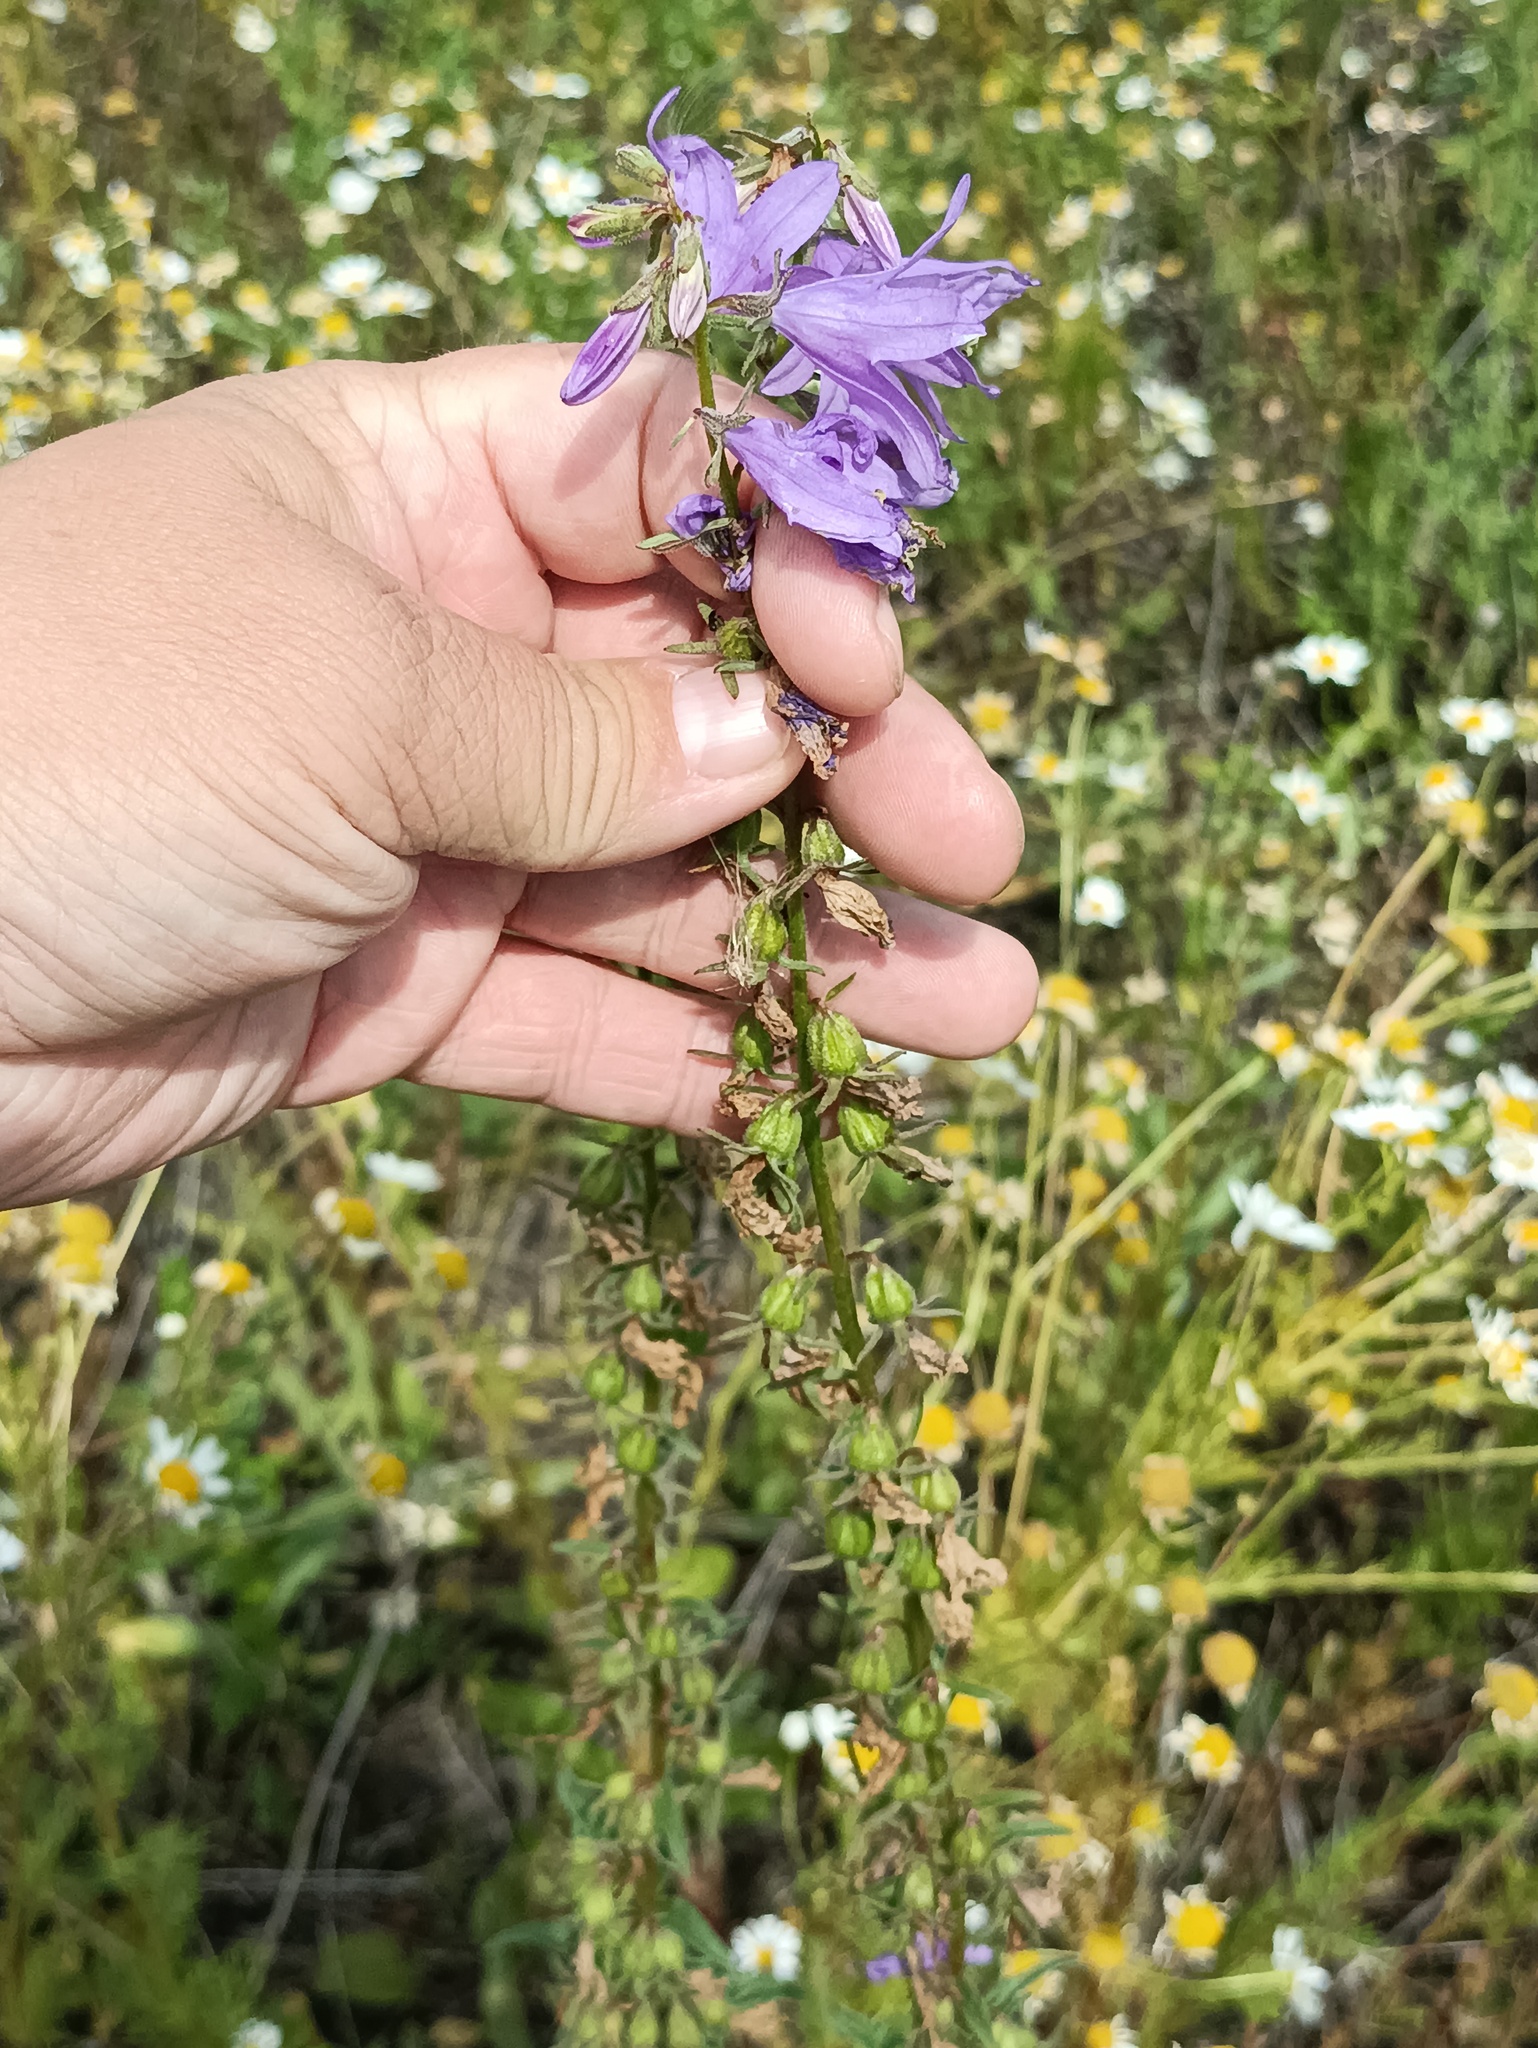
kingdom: Plantae
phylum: Tracheophyta
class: Magnoliopsida
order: Asterales
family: Campanulaceae
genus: Campanula
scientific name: Campanula bononiensis
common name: Pale bellflower
